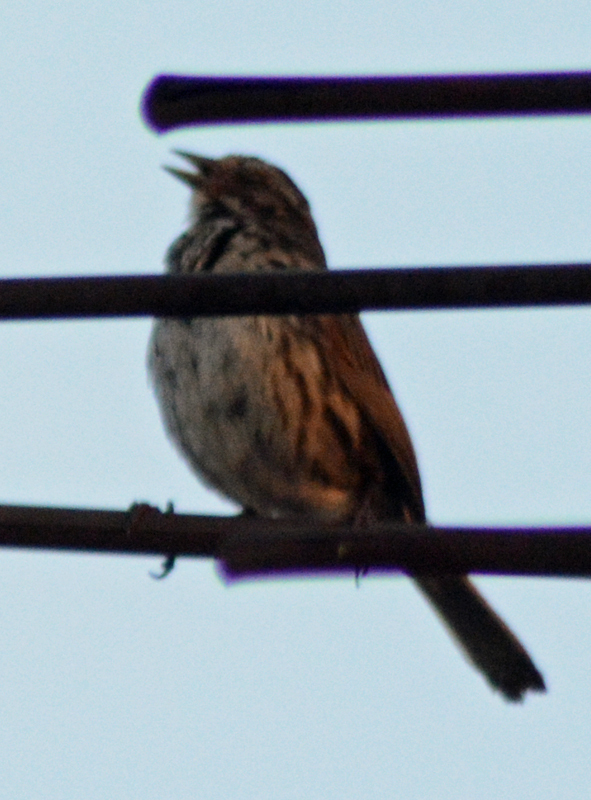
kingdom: Animalia
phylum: Chordata
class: Aves
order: Passeriformes
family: Passerellidae
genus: Melospiza
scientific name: Melospiza melodia
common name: Song sparrow
